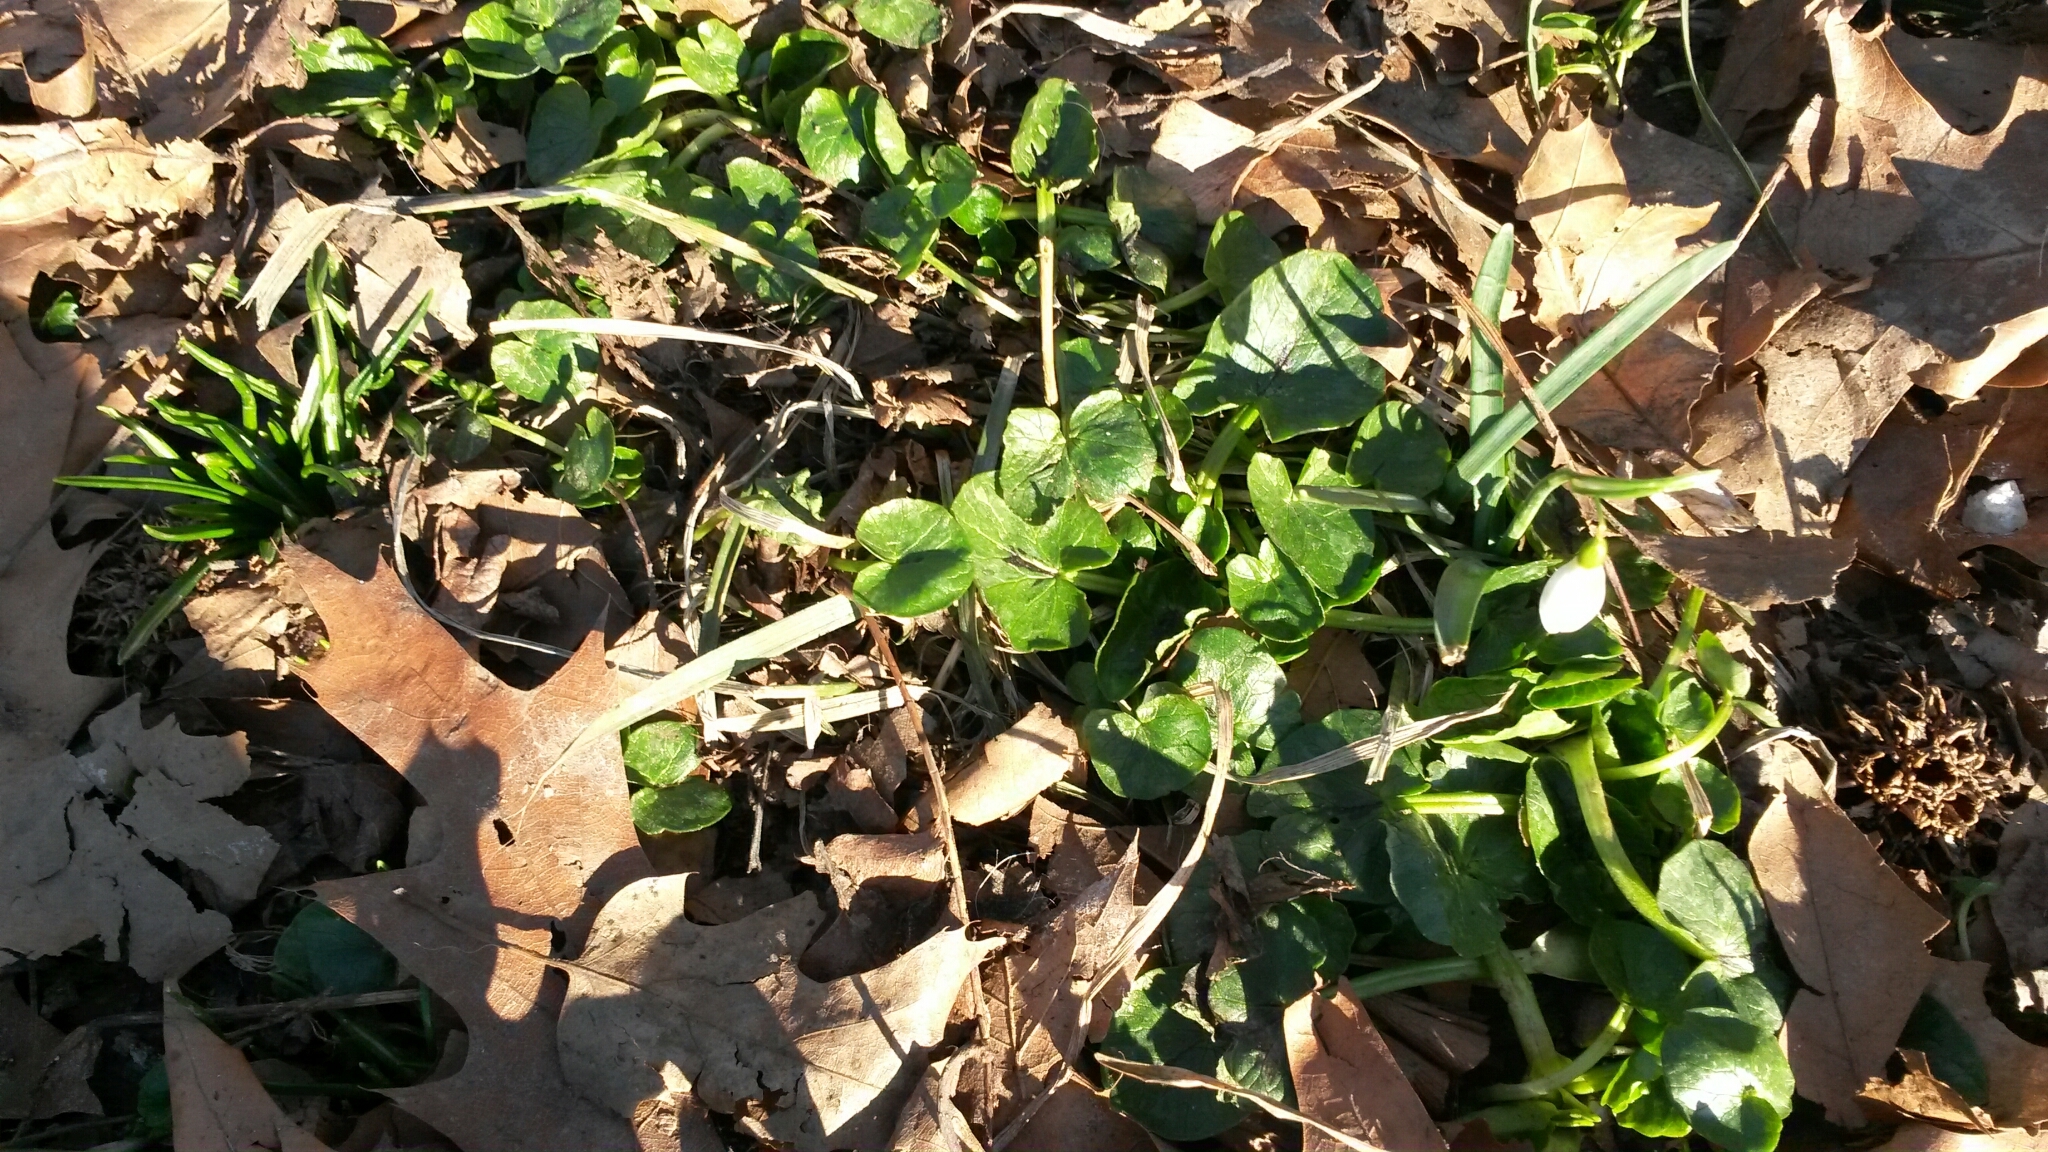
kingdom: Plantae
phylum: Tracheophyta
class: Magnoliopsida
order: Ranunculales
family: Ranunculaceae
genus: Ficaria
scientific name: Ficaria verna
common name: Lesser celandine
